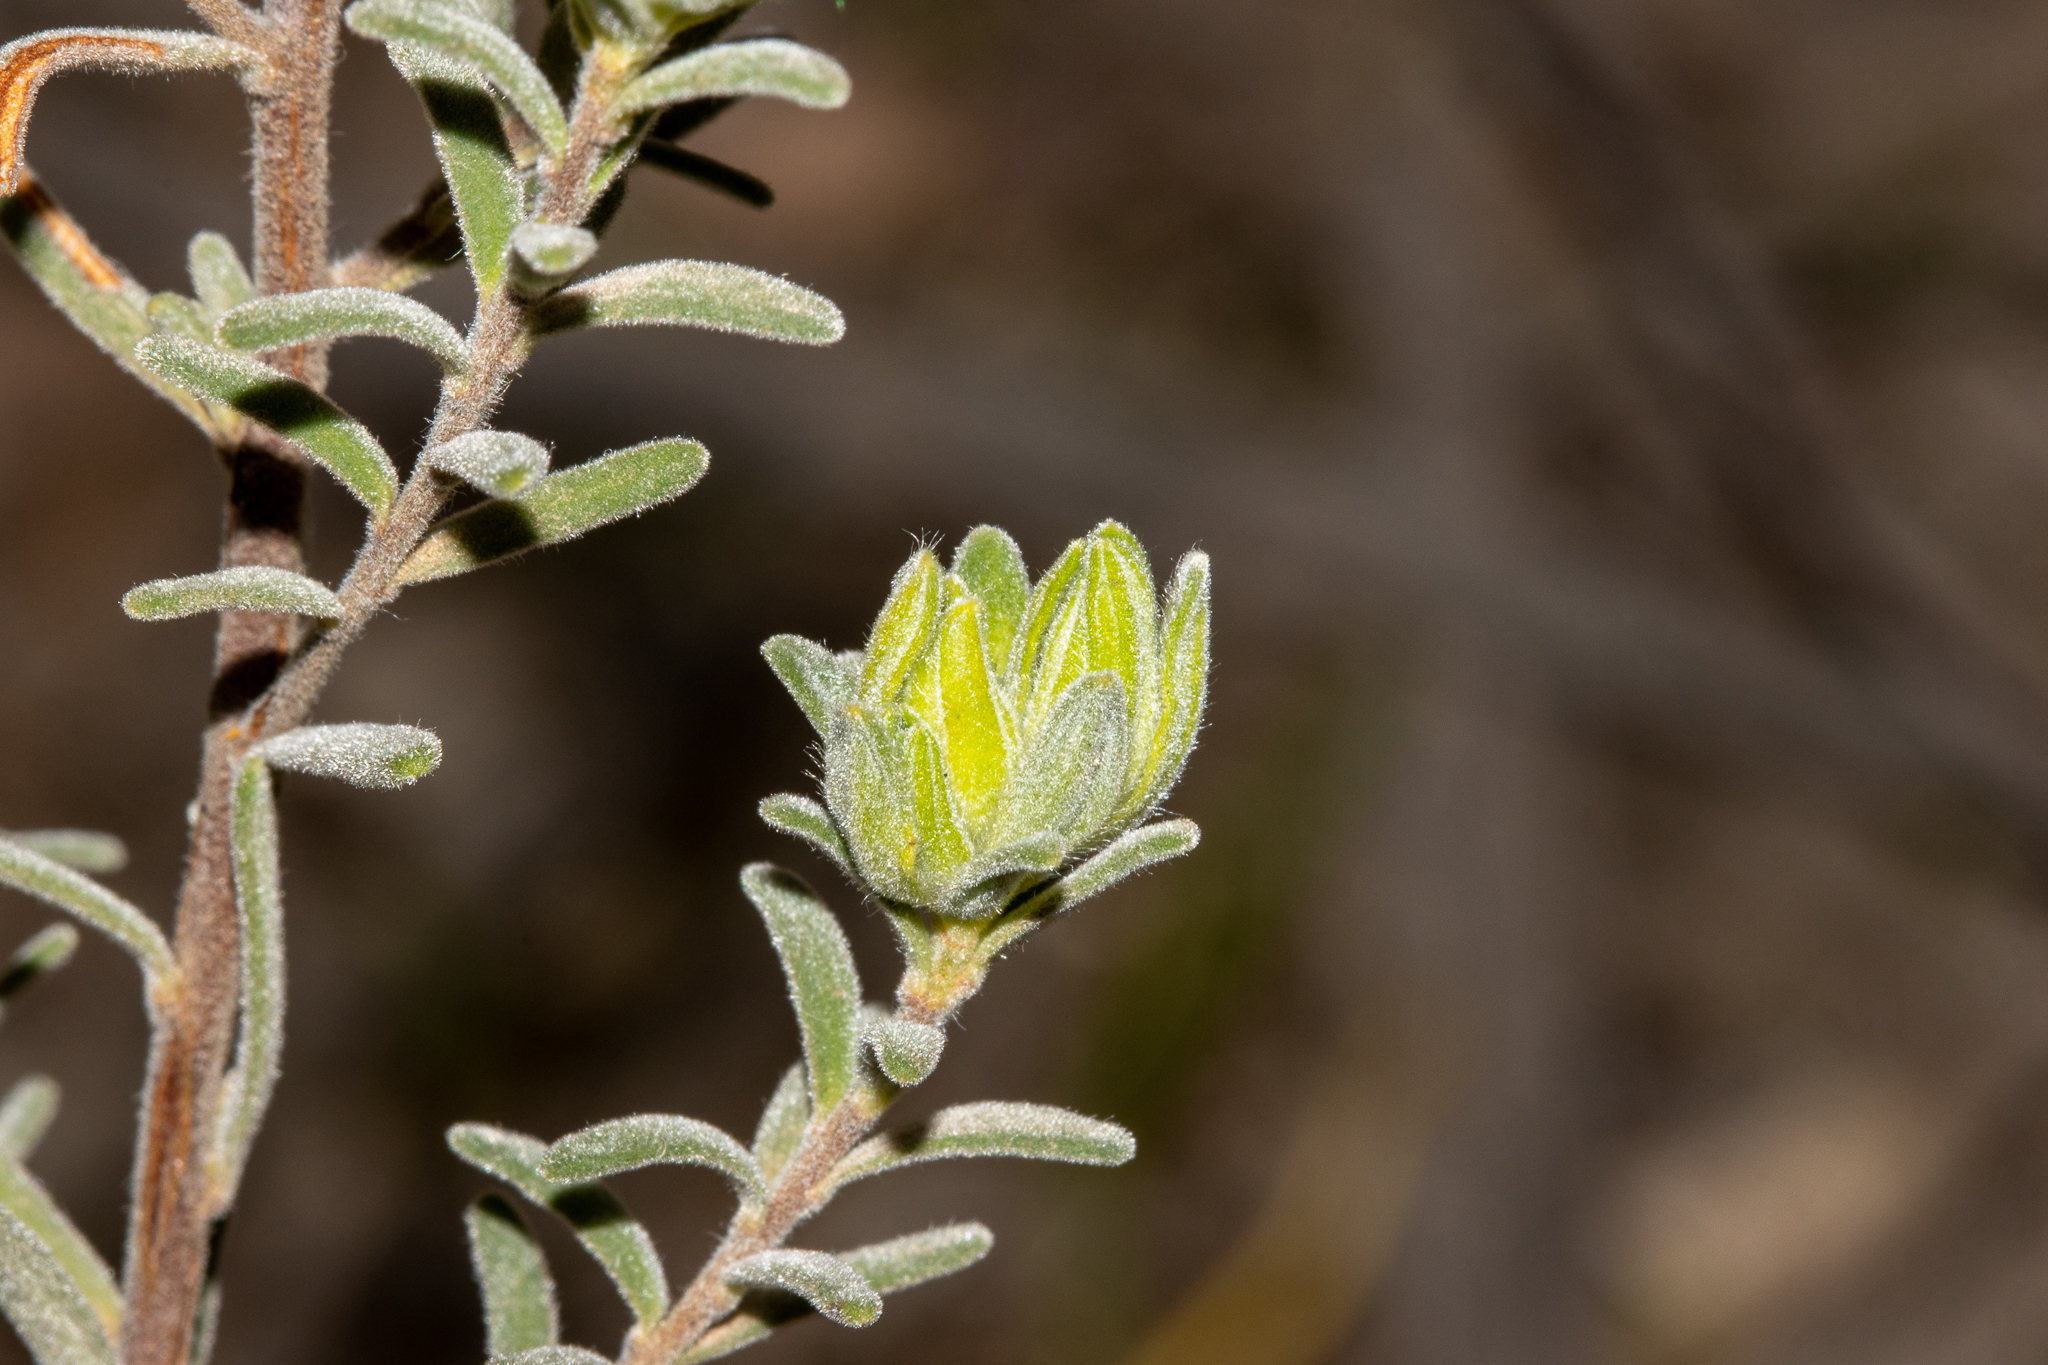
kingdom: Plantae
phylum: Tracheophyta
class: Magnoliopsida
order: Dilleniales
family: Dilleniaceae
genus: Hibbertia
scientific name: Hibbertia crinita
